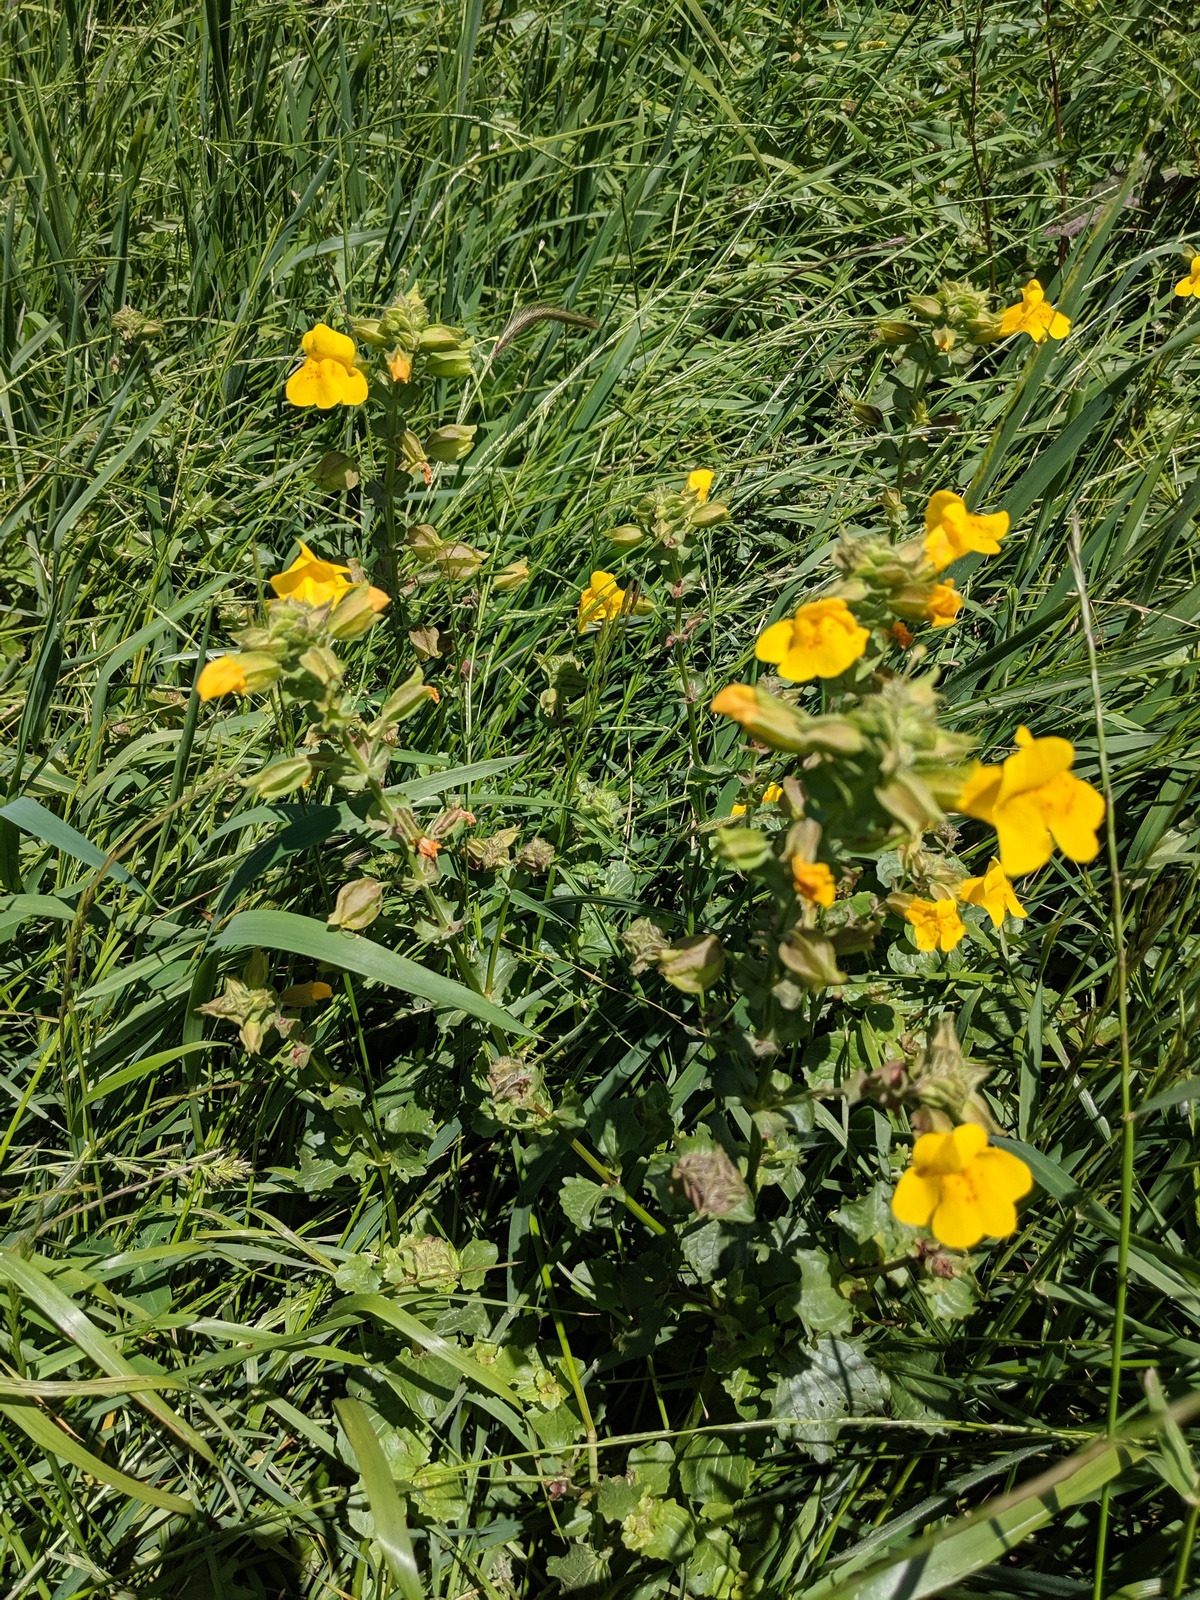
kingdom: Plantae
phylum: Tracheophyta
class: Magnoliopsida
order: Lamiales
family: Phrymaceae
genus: Erythranthe
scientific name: Erythranthe guttata
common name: Monkeyflower
